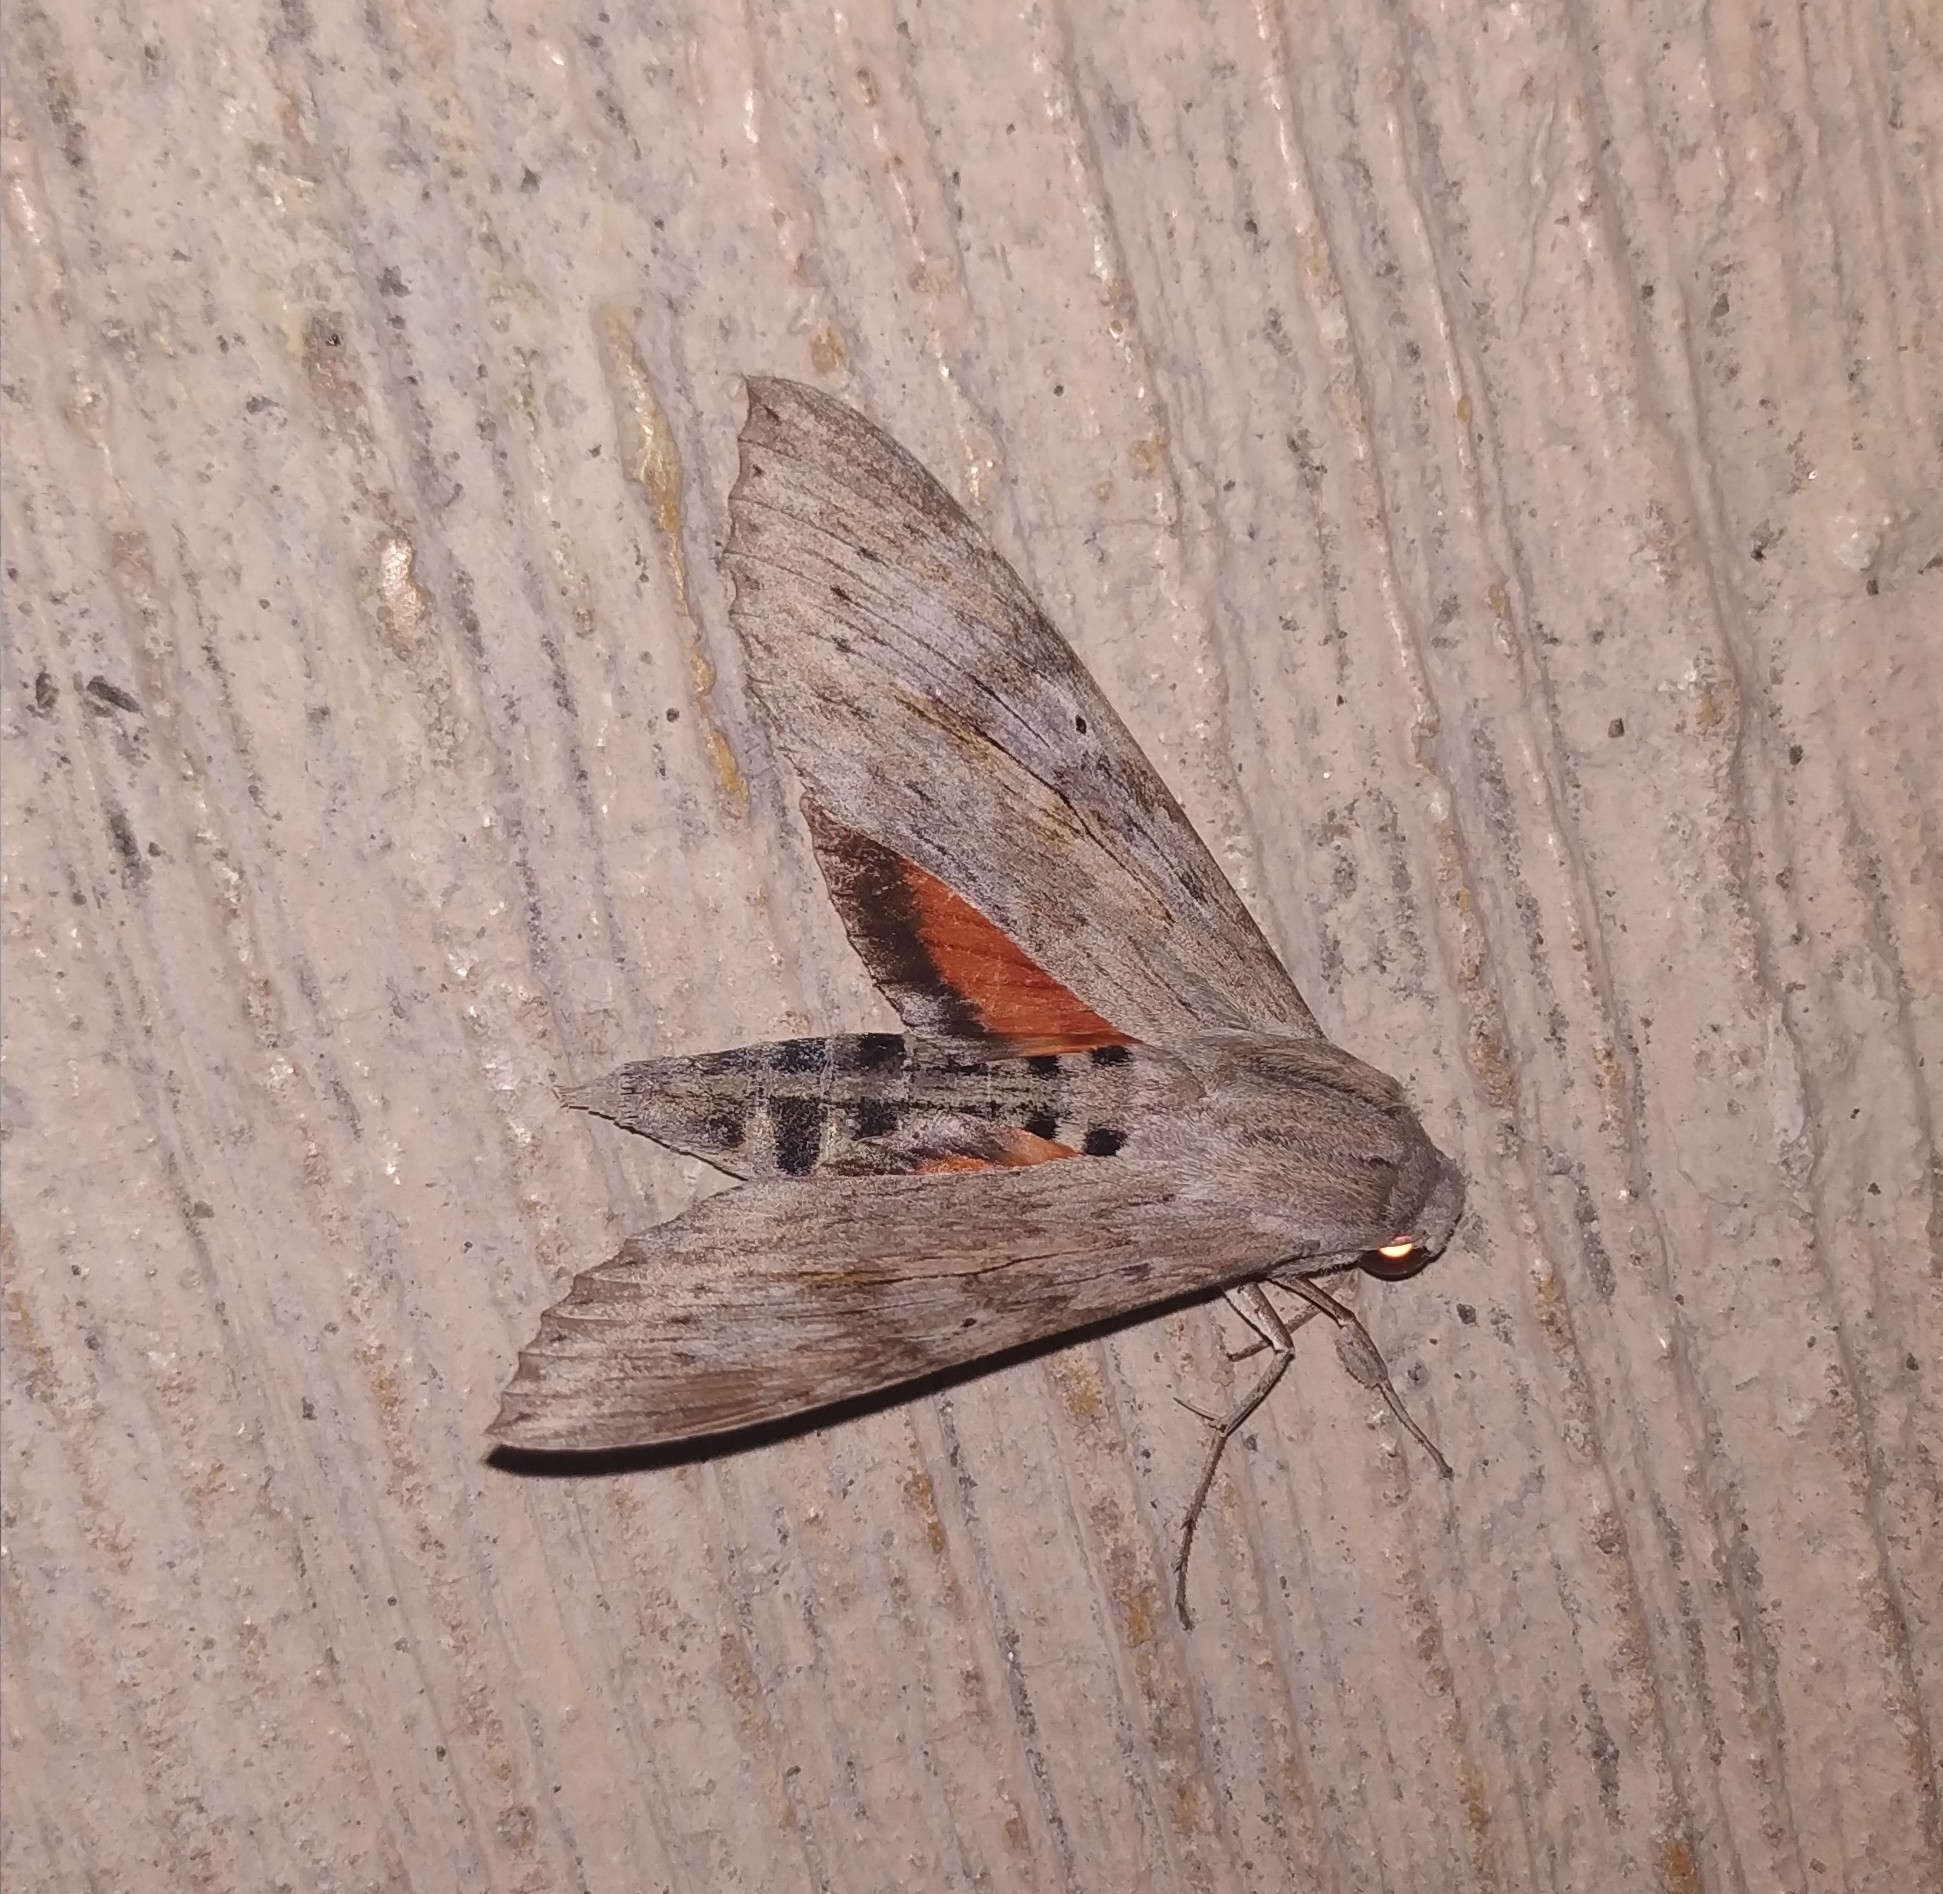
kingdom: Animalia
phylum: Arthropoda
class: Insecta
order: Lepidoptera
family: Sphingidae
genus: Erinnyis
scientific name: Erinnyis ello
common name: Ello sphinx
